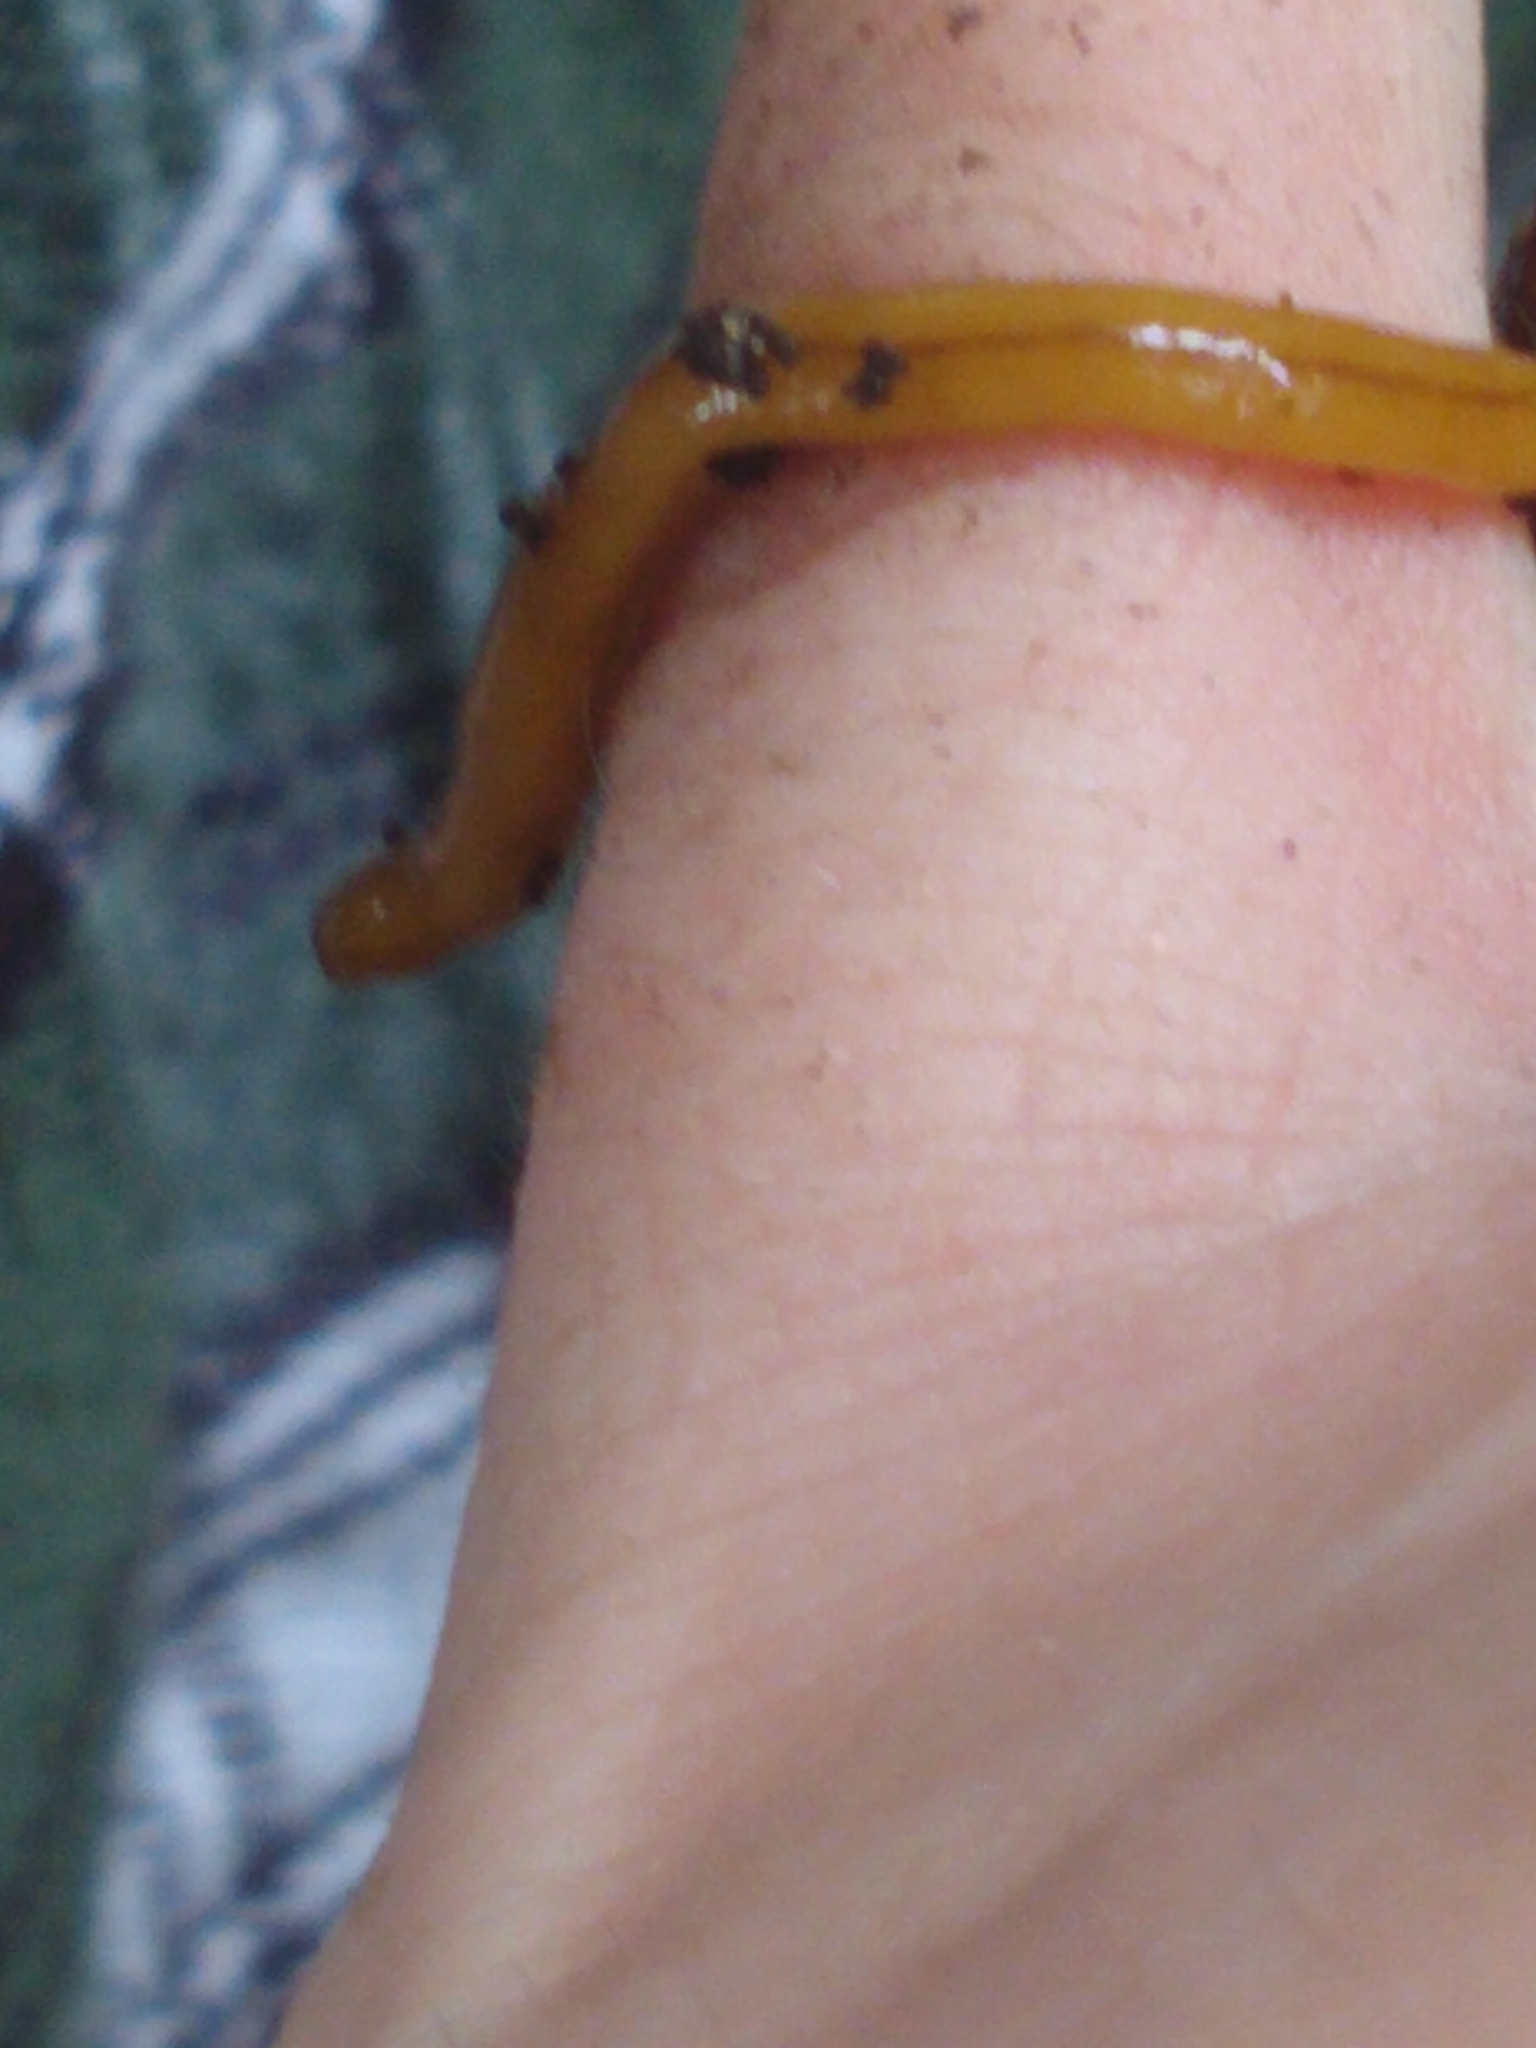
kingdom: Animalia
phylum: Platyhelminthes
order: Tricladida
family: Geoplanidae
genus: Bipalium
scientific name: Bipalium adventitium
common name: Land planarian
